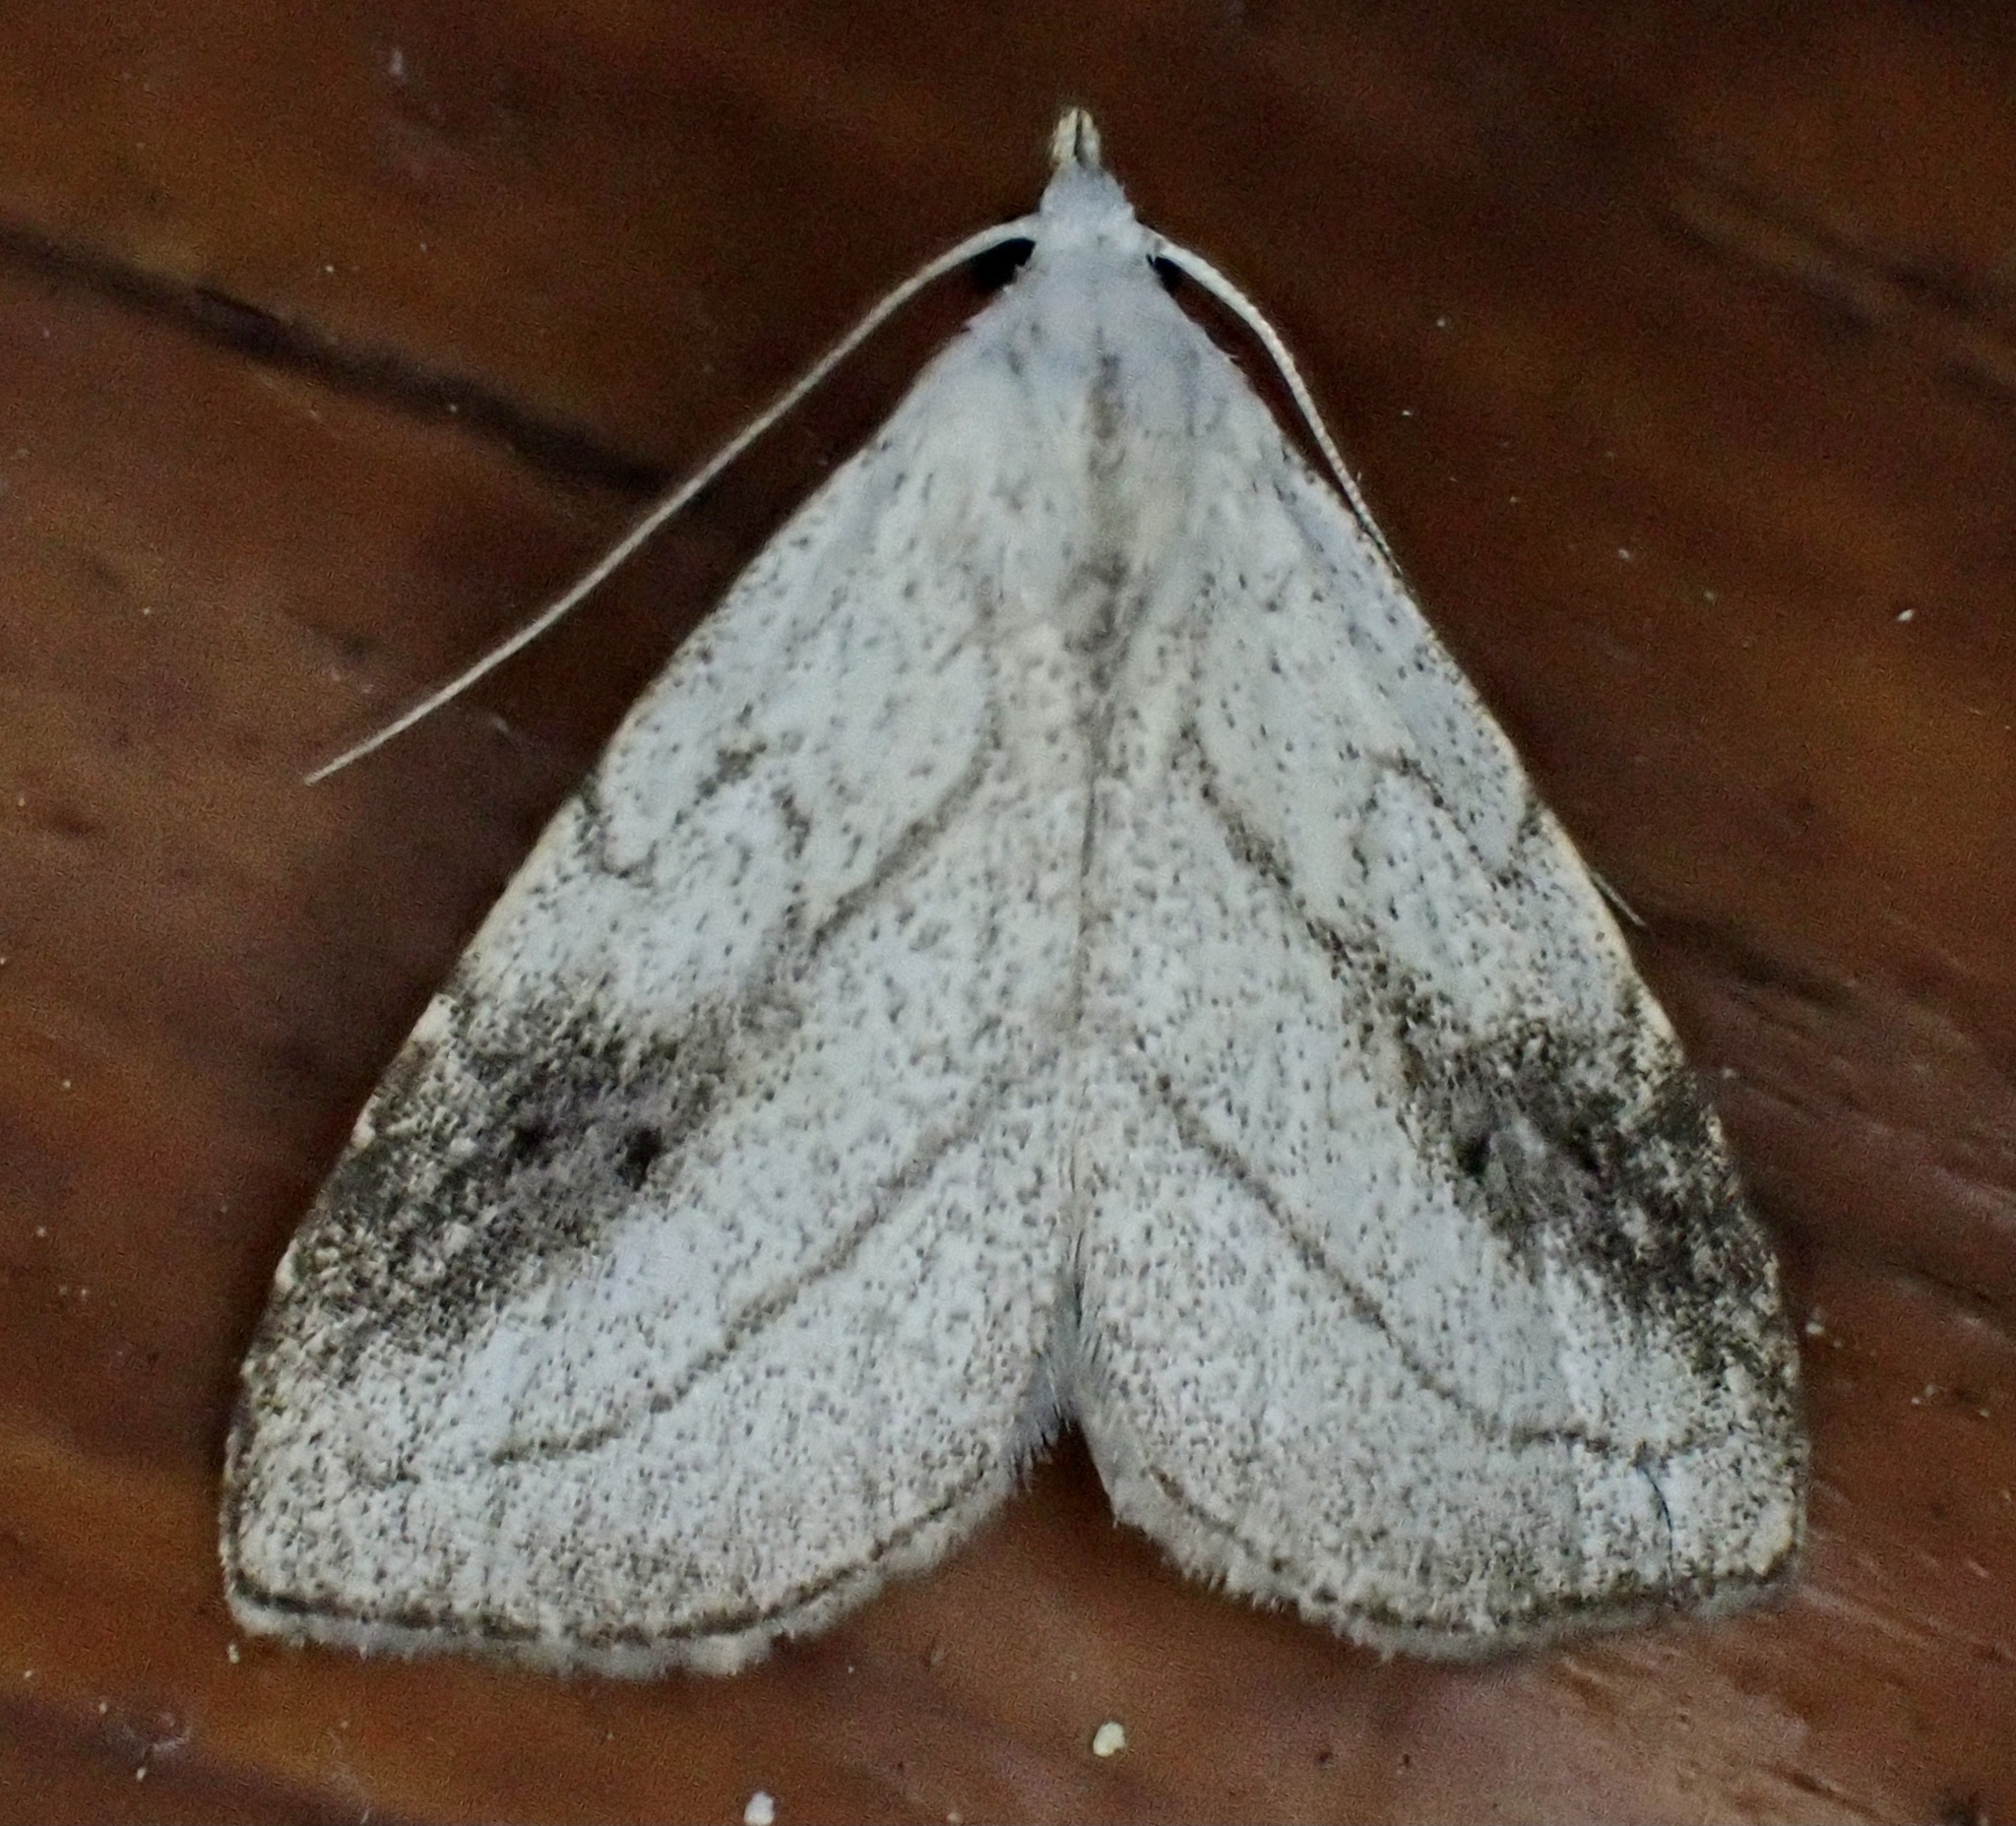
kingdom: Animalia
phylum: Arthropoda
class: Insecta
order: Lepidoptera
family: Erebidae
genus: Rivula
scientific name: Rivula propinqualis
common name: Spotted grass moth
